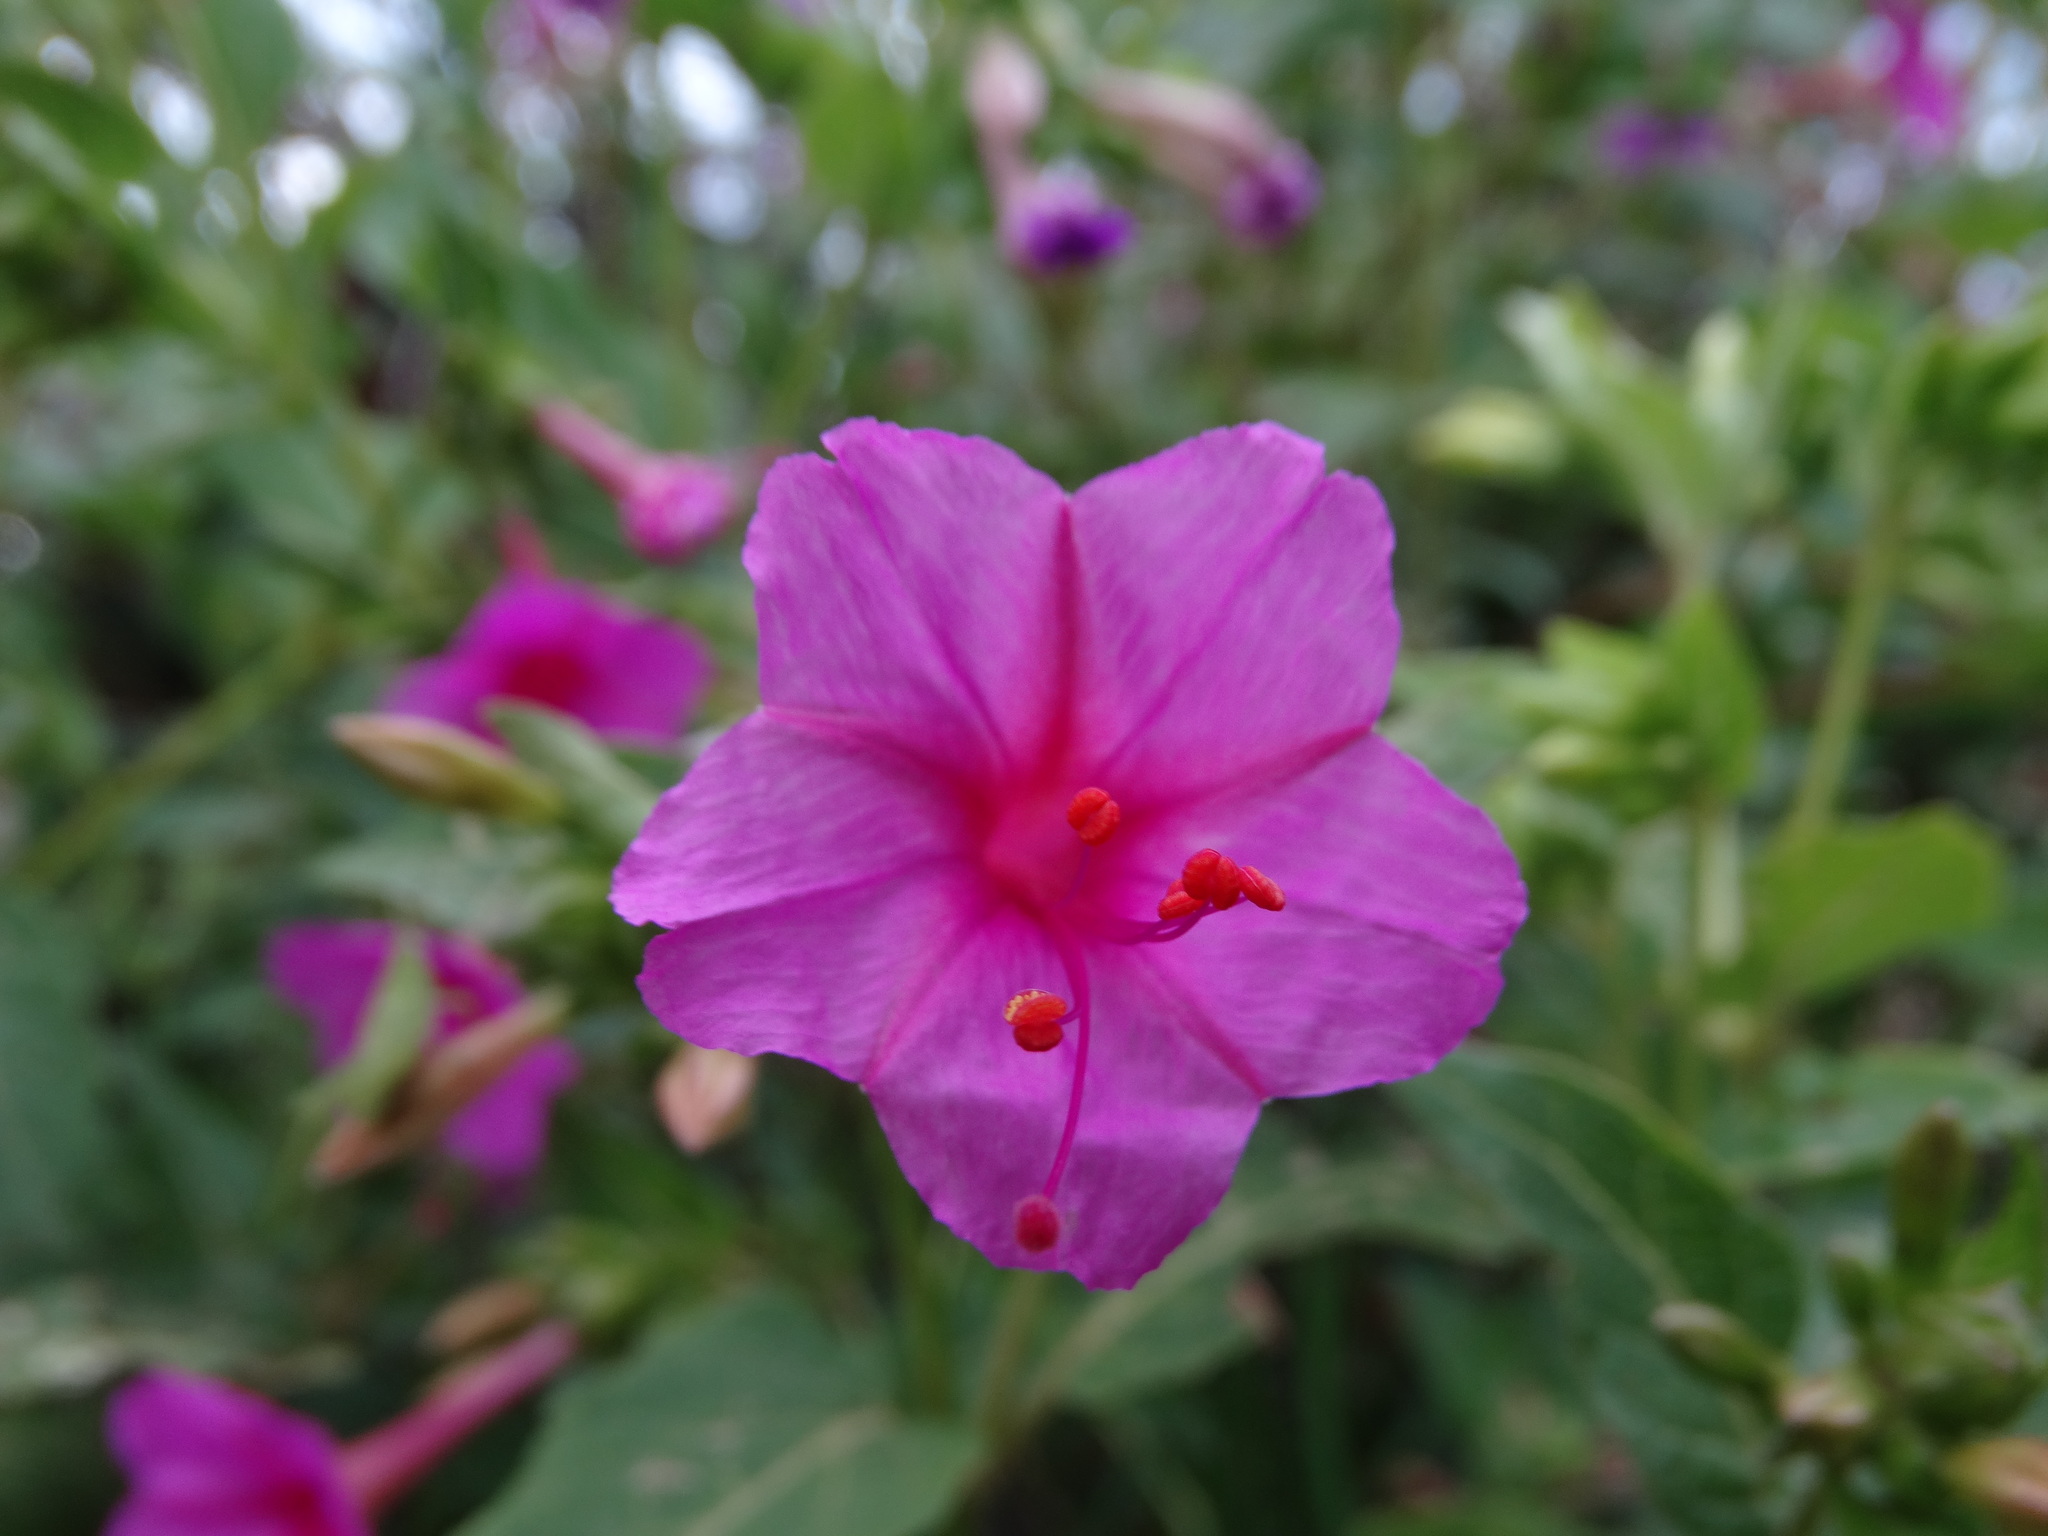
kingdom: Plantae
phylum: Tracheophyta
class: Magnoliopsida
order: Caryophyllales
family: Nyctaginaceae
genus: Mirabilis
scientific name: Mirabilis jalapa
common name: Marvel-of-peru
